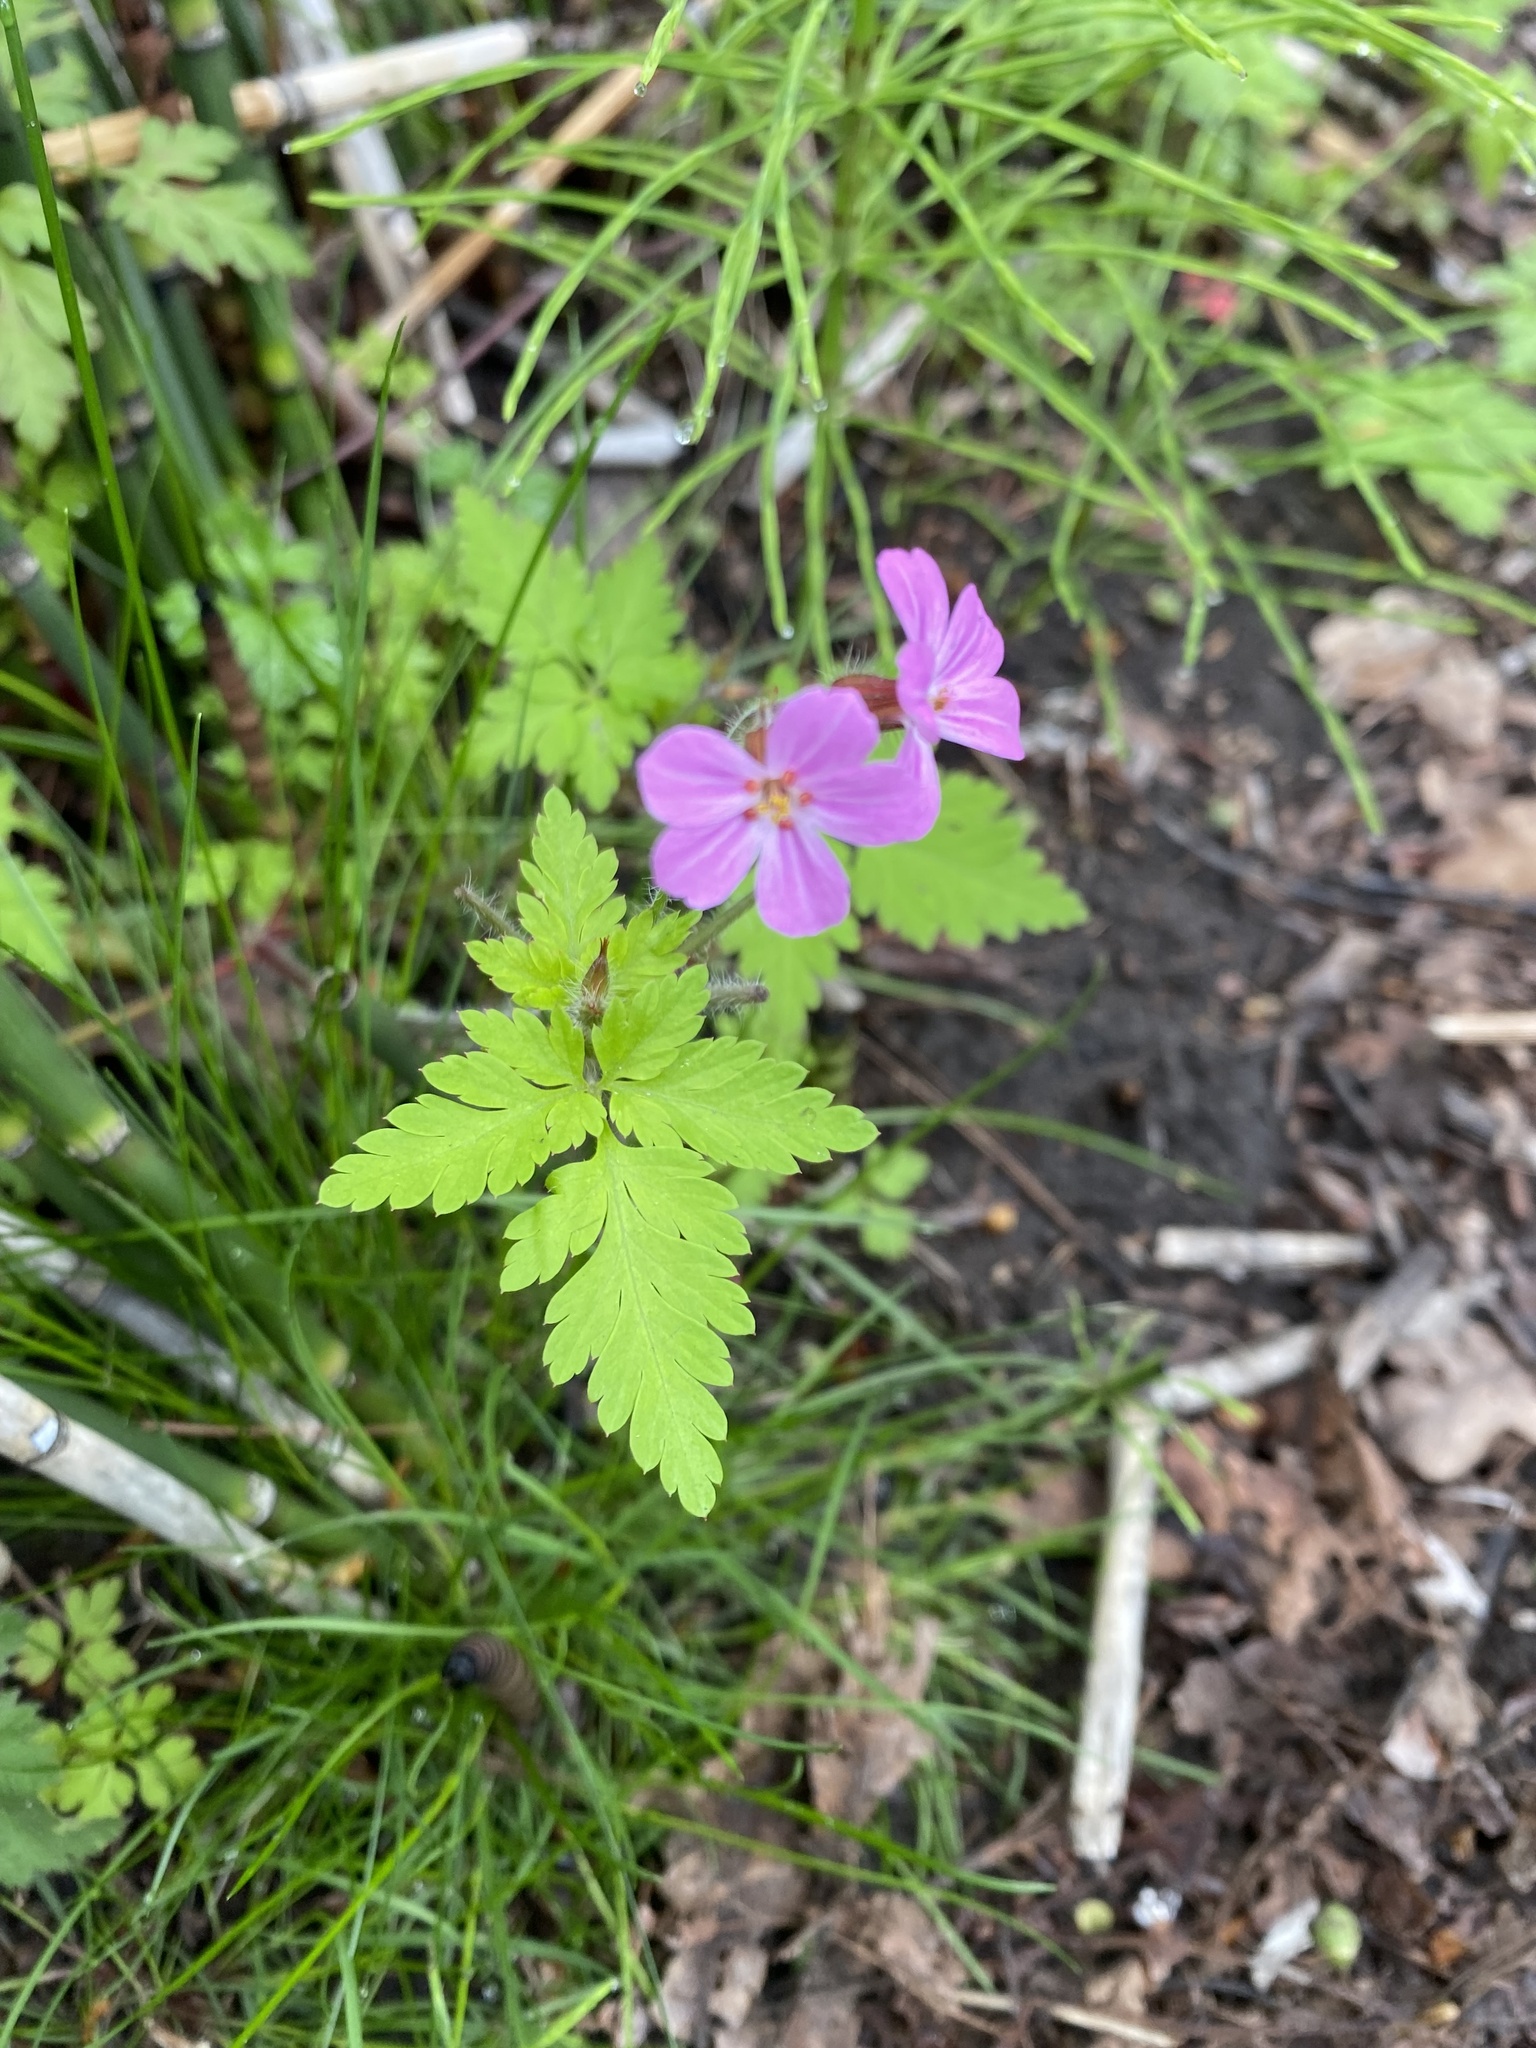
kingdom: Plantae
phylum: Tracheophyta
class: Magnoliopsida
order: Geraniales
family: Geraniaceae
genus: Geranium
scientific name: Geranium robertianum
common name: Herb-robert
